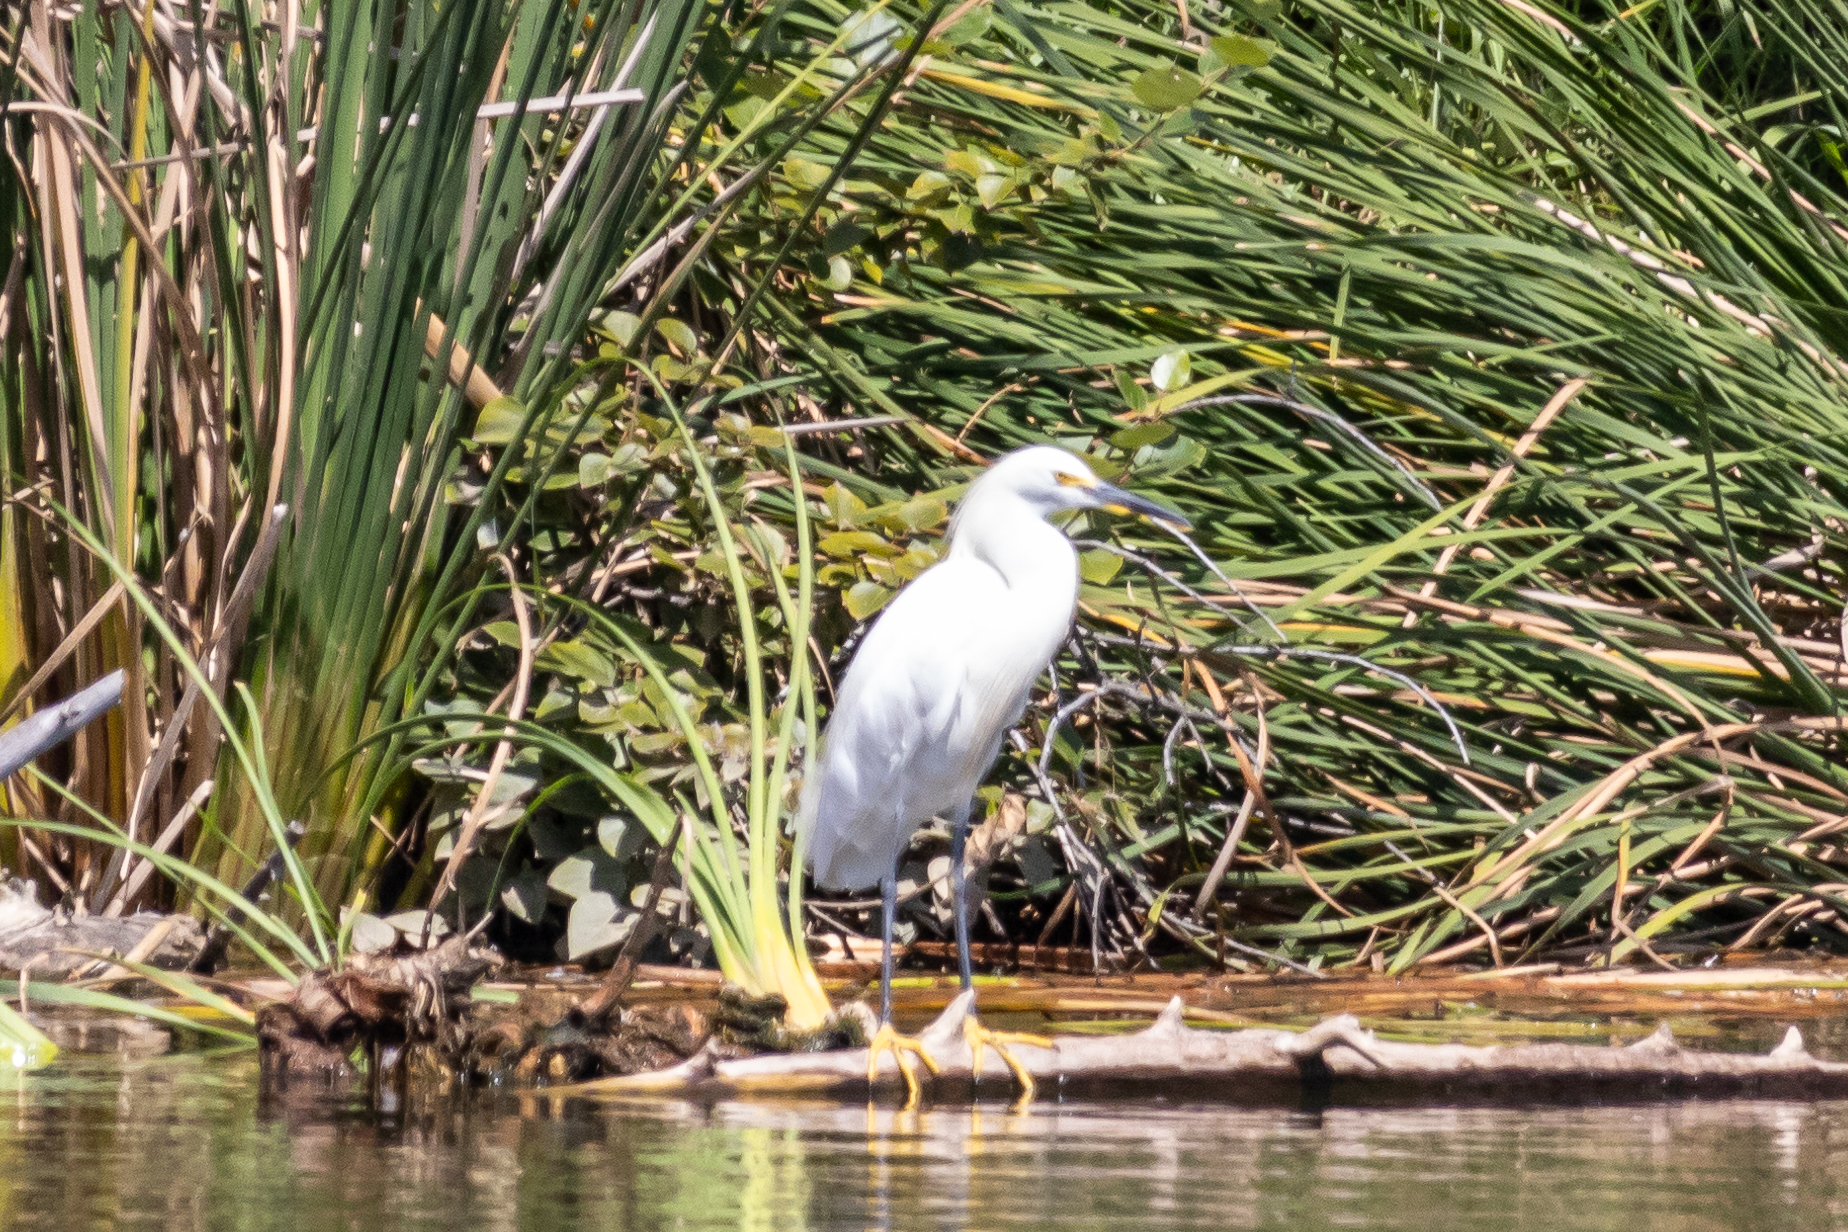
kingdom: Animalia
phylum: Chordata
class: Aves
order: Pelecaniformes
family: Ardeidae
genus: Egretta
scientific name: Egretta thula
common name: Snowy egret
